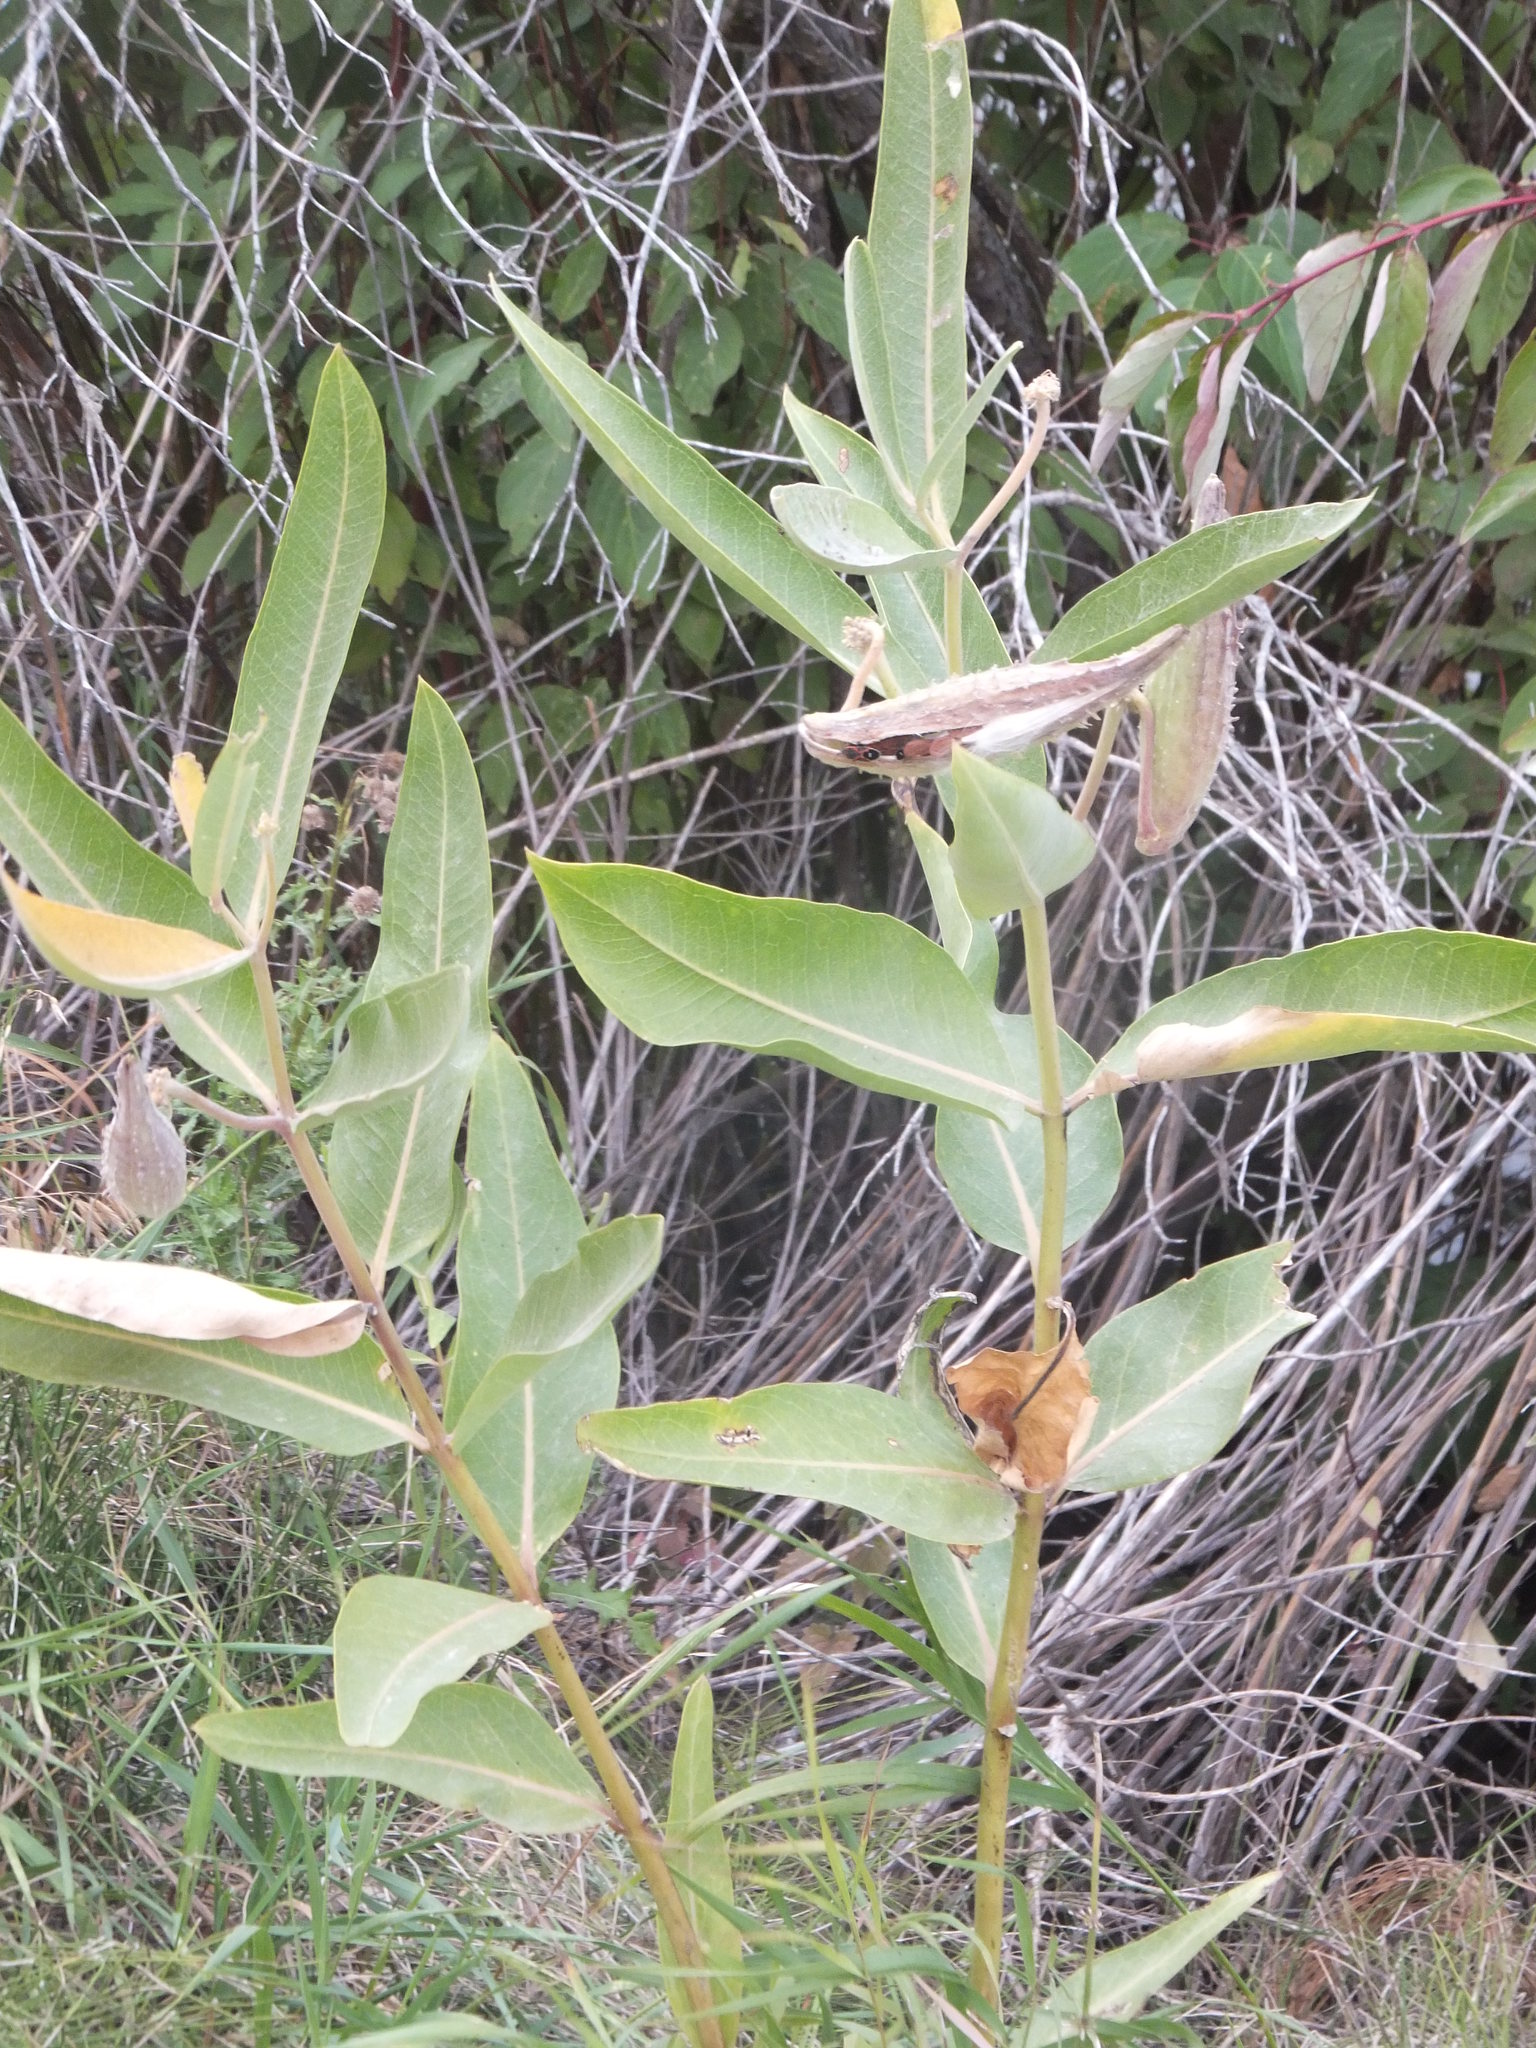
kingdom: Plantae
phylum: Tracheophyta
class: Magnoliopsida
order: Gentianales
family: Apocynaceae
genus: Asclepias
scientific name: Asclepias speciosa
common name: Showy milkweed
